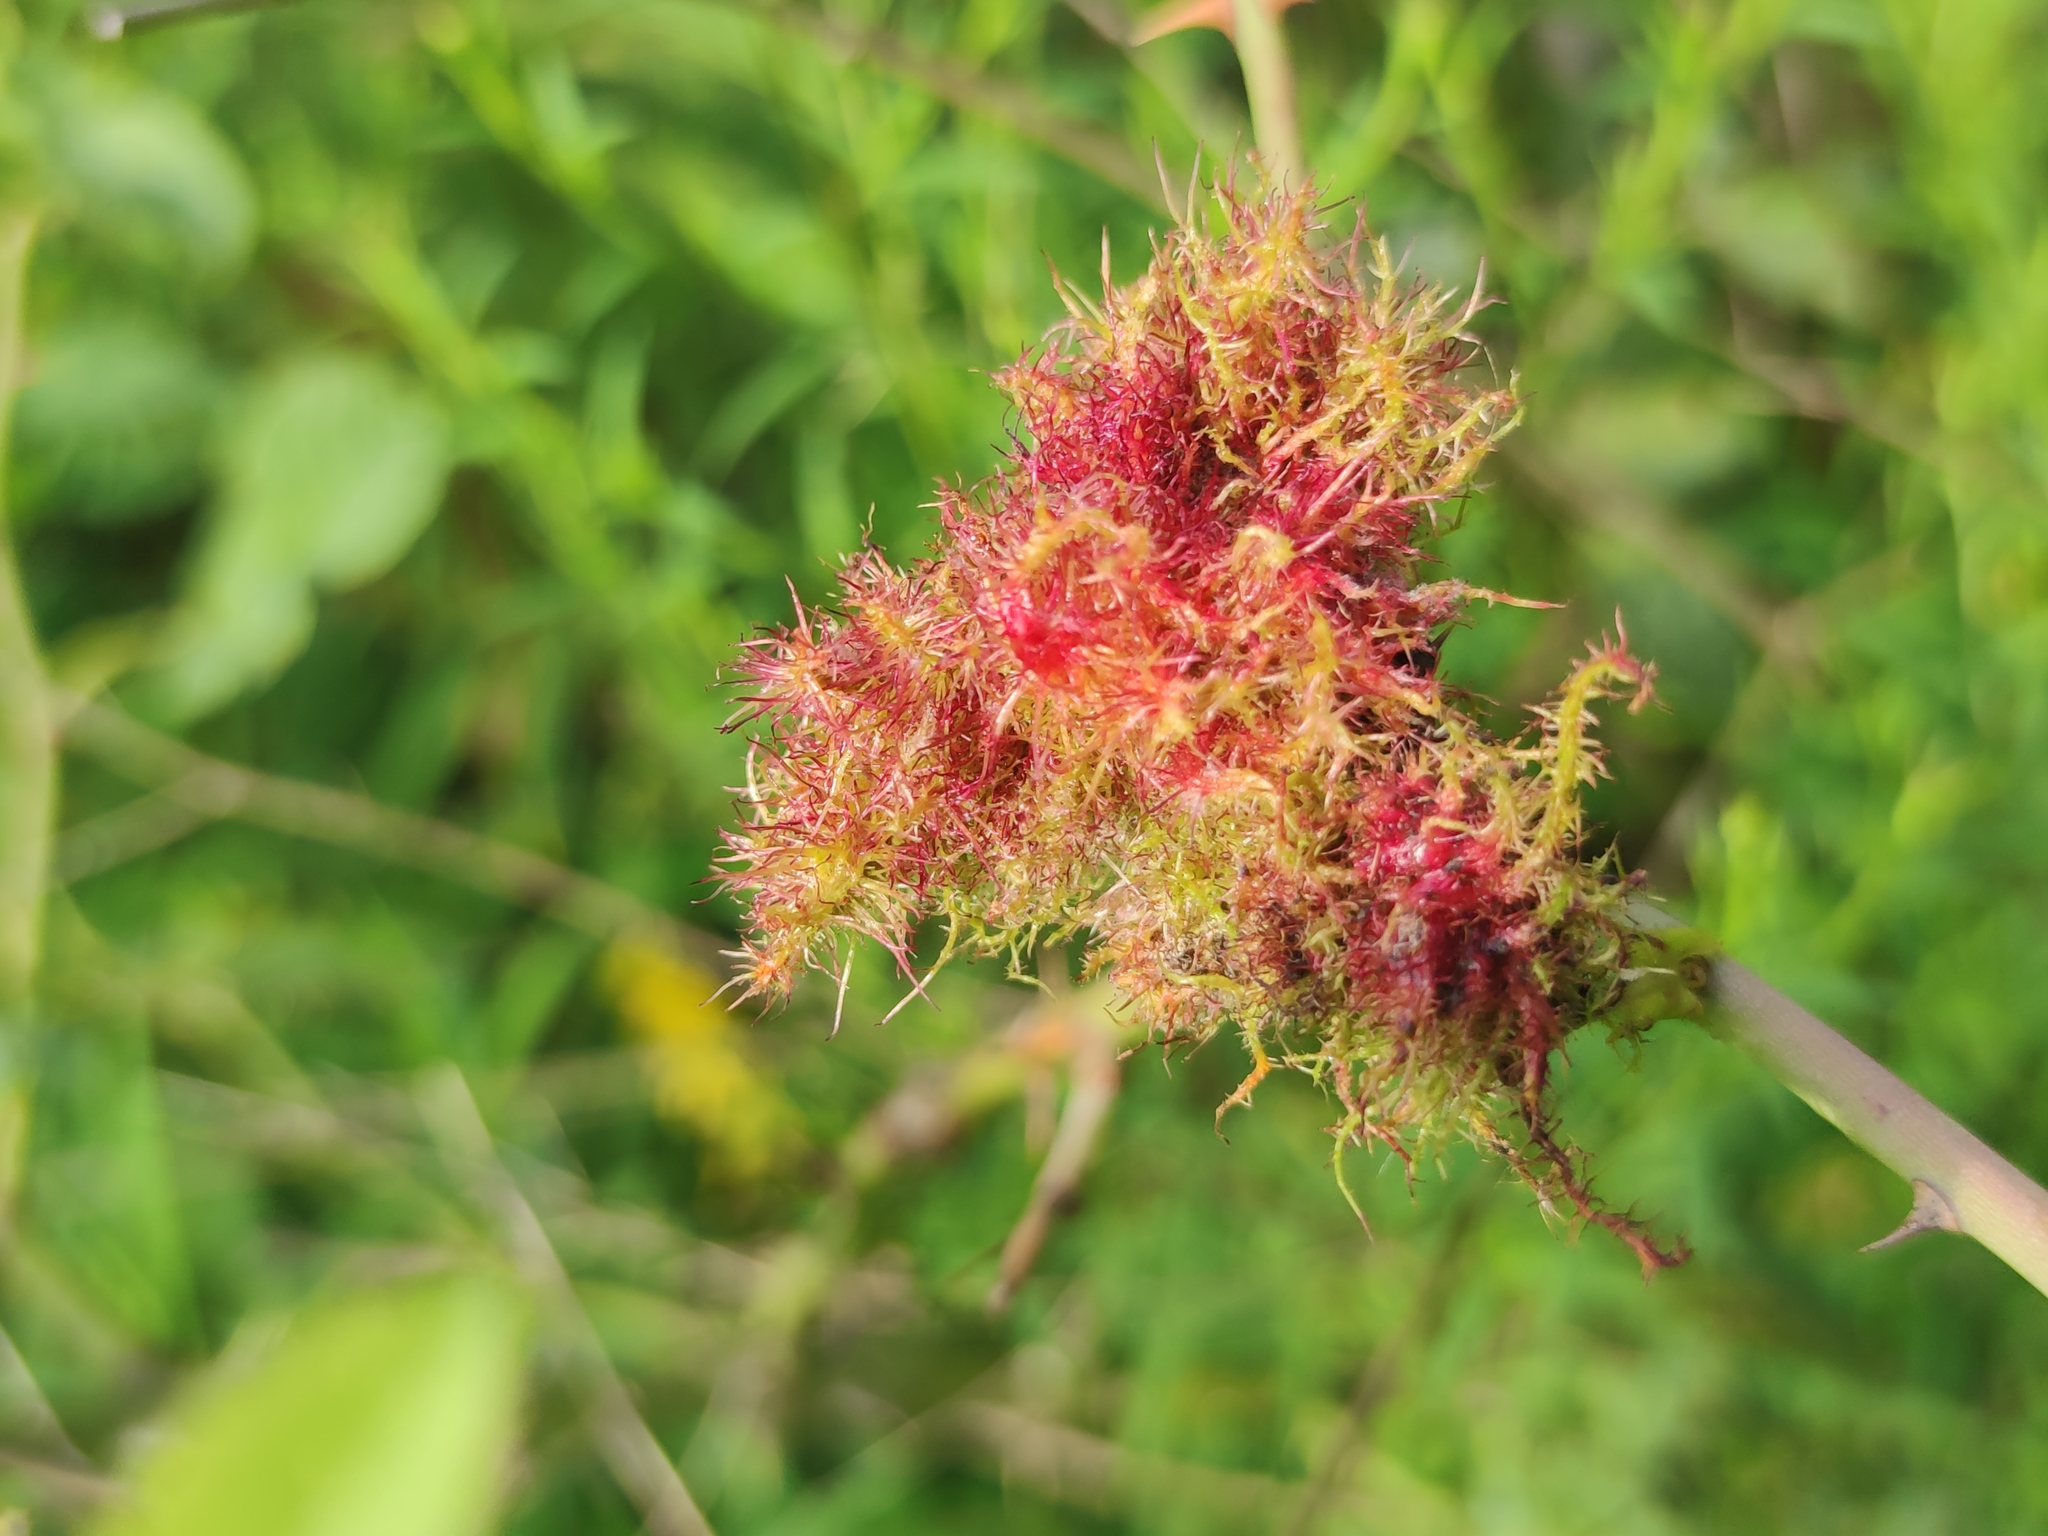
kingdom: Animalia
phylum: Arthropoda
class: Insecta
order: Hymenoptera
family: Cynipidae
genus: Diplolepis
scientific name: Diplolepis rosae
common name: Bedeguar gall
